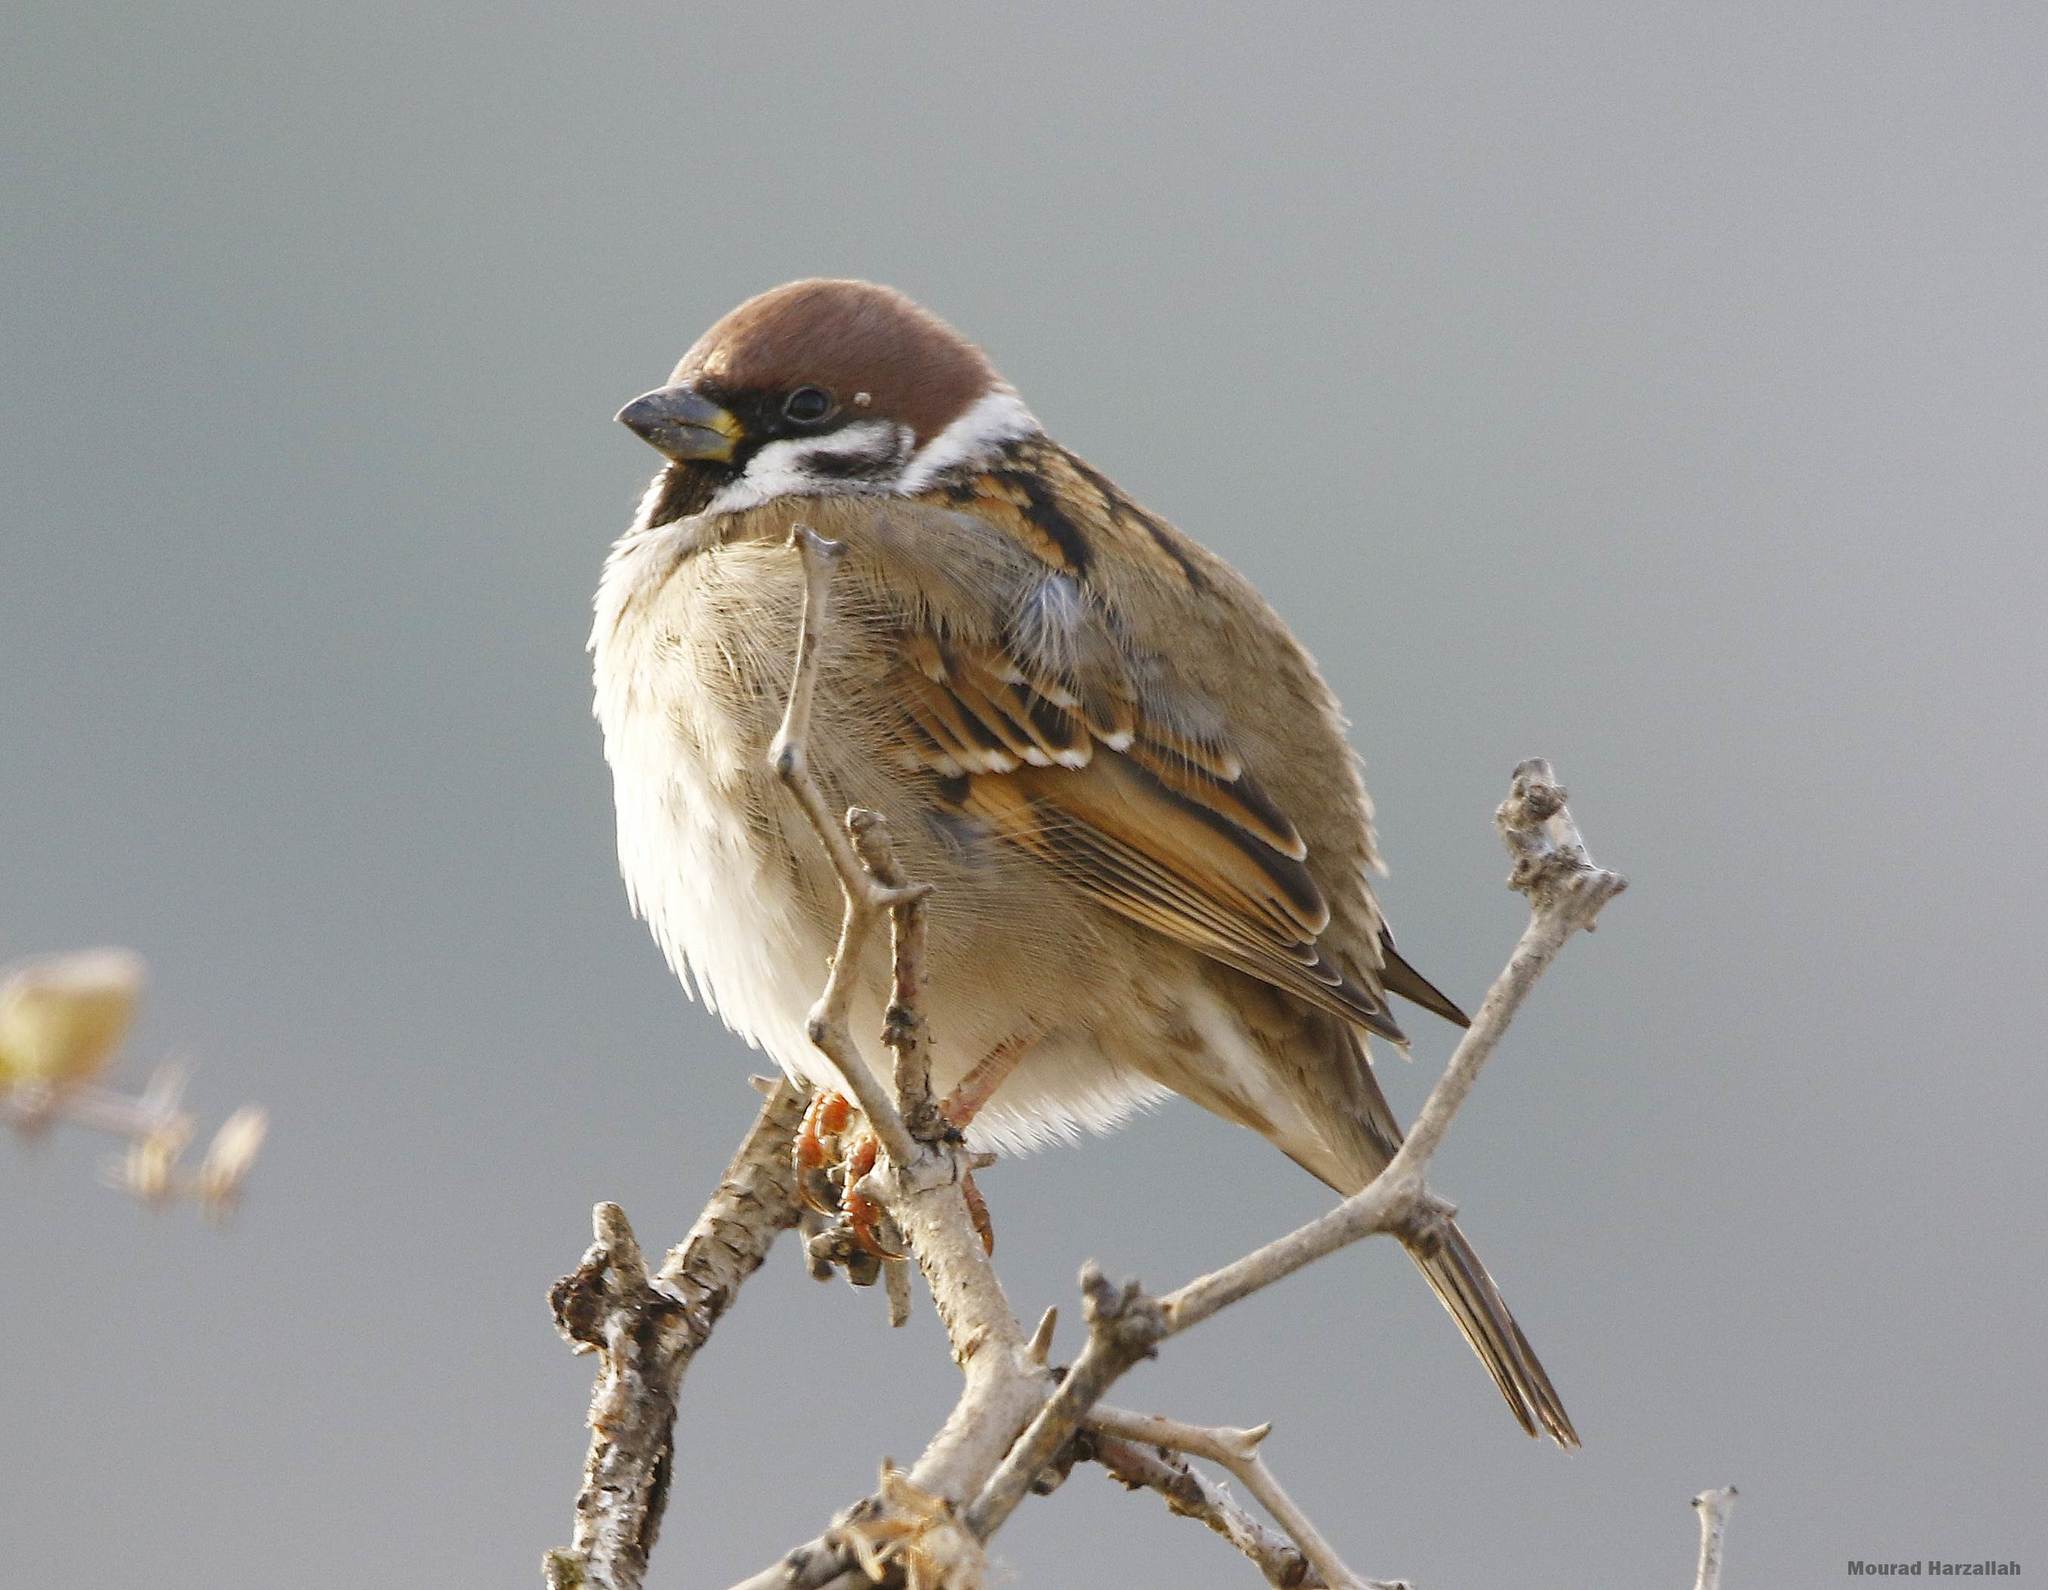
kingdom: Animalia
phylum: Chordata
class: Aves
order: Passeriformes
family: Passeridae
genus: Passer
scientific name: Passer montanus
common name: Eurasian tree sparrow
